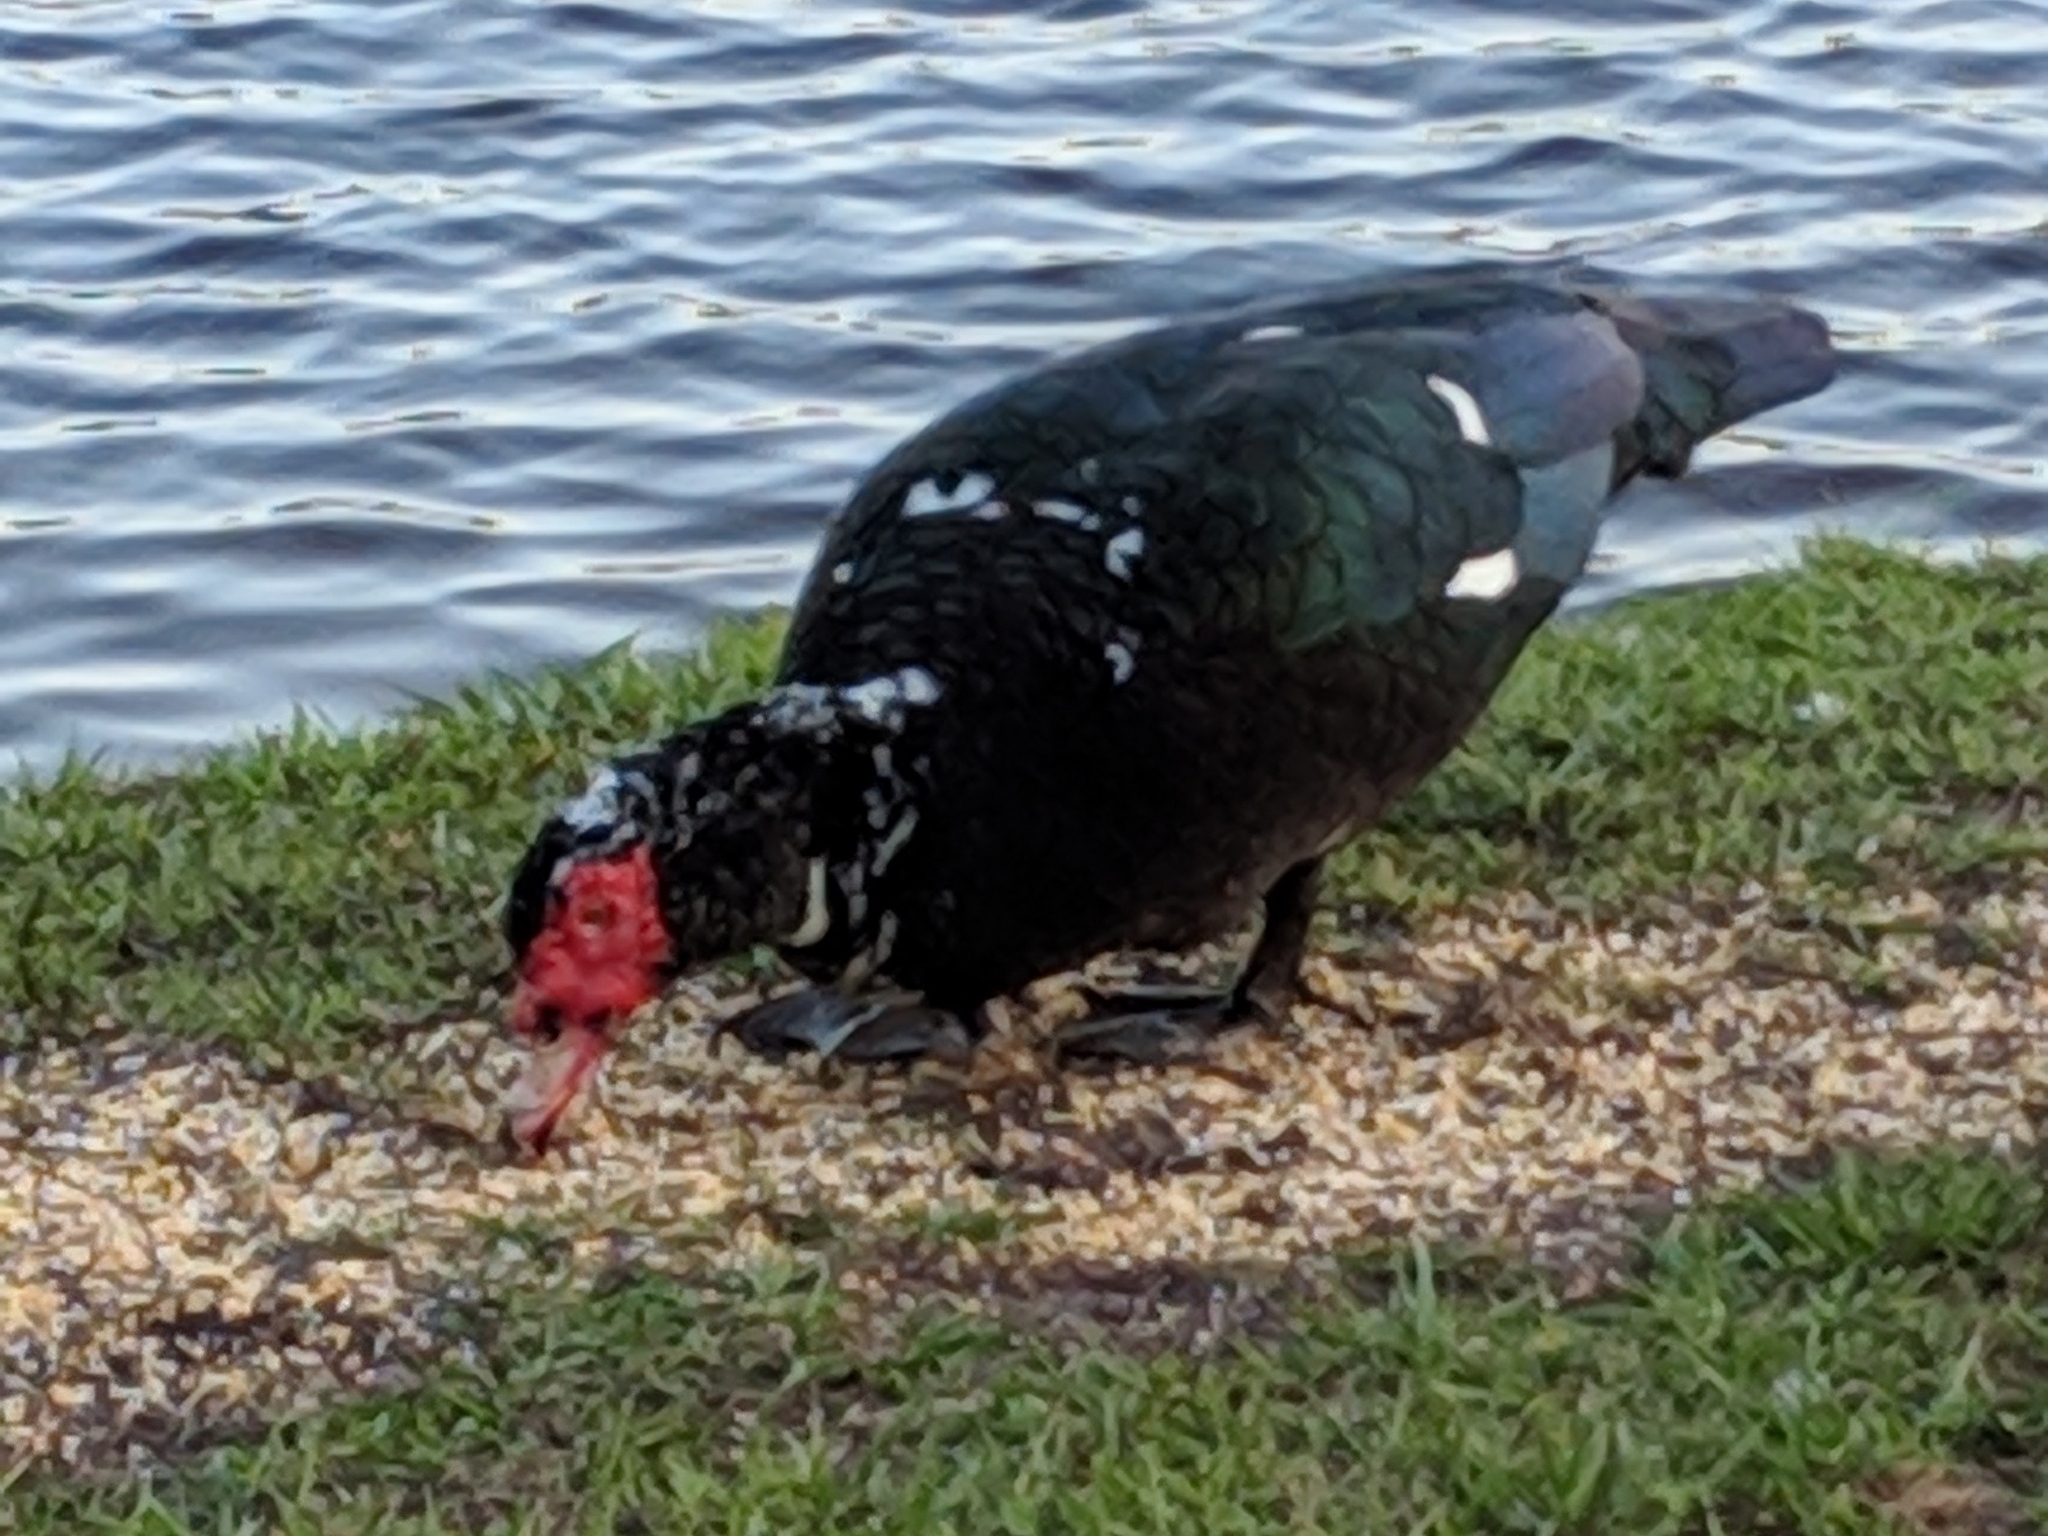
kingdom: Animalia
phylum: Chordata
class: Aves
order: Anseriformes
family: Anatidae
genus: Cairina
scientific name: Cairina moschata
